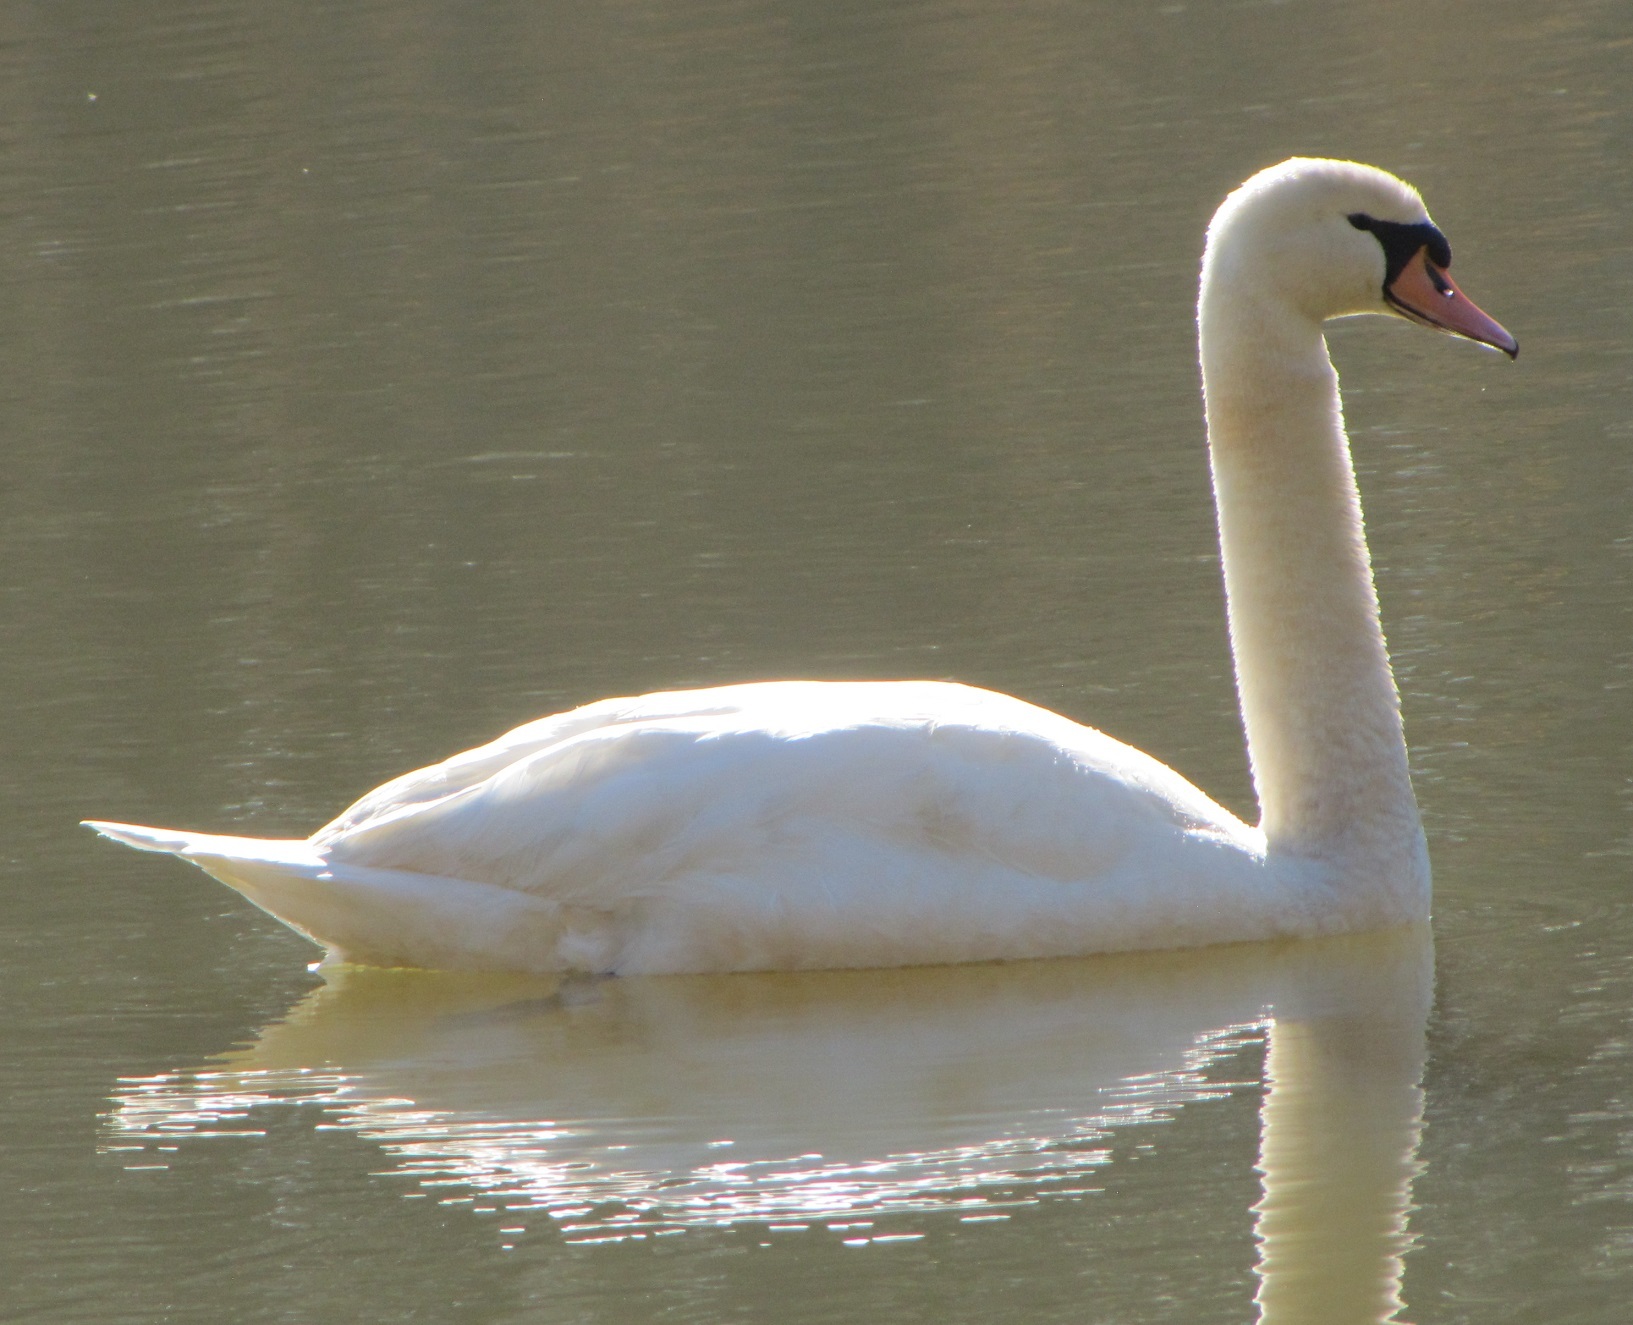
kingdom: Animalia
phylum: Chordata
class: Aves
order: Anseriformes
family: Anatidae
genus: Cygnus
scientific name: Cygnus olor
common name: Mute swan
